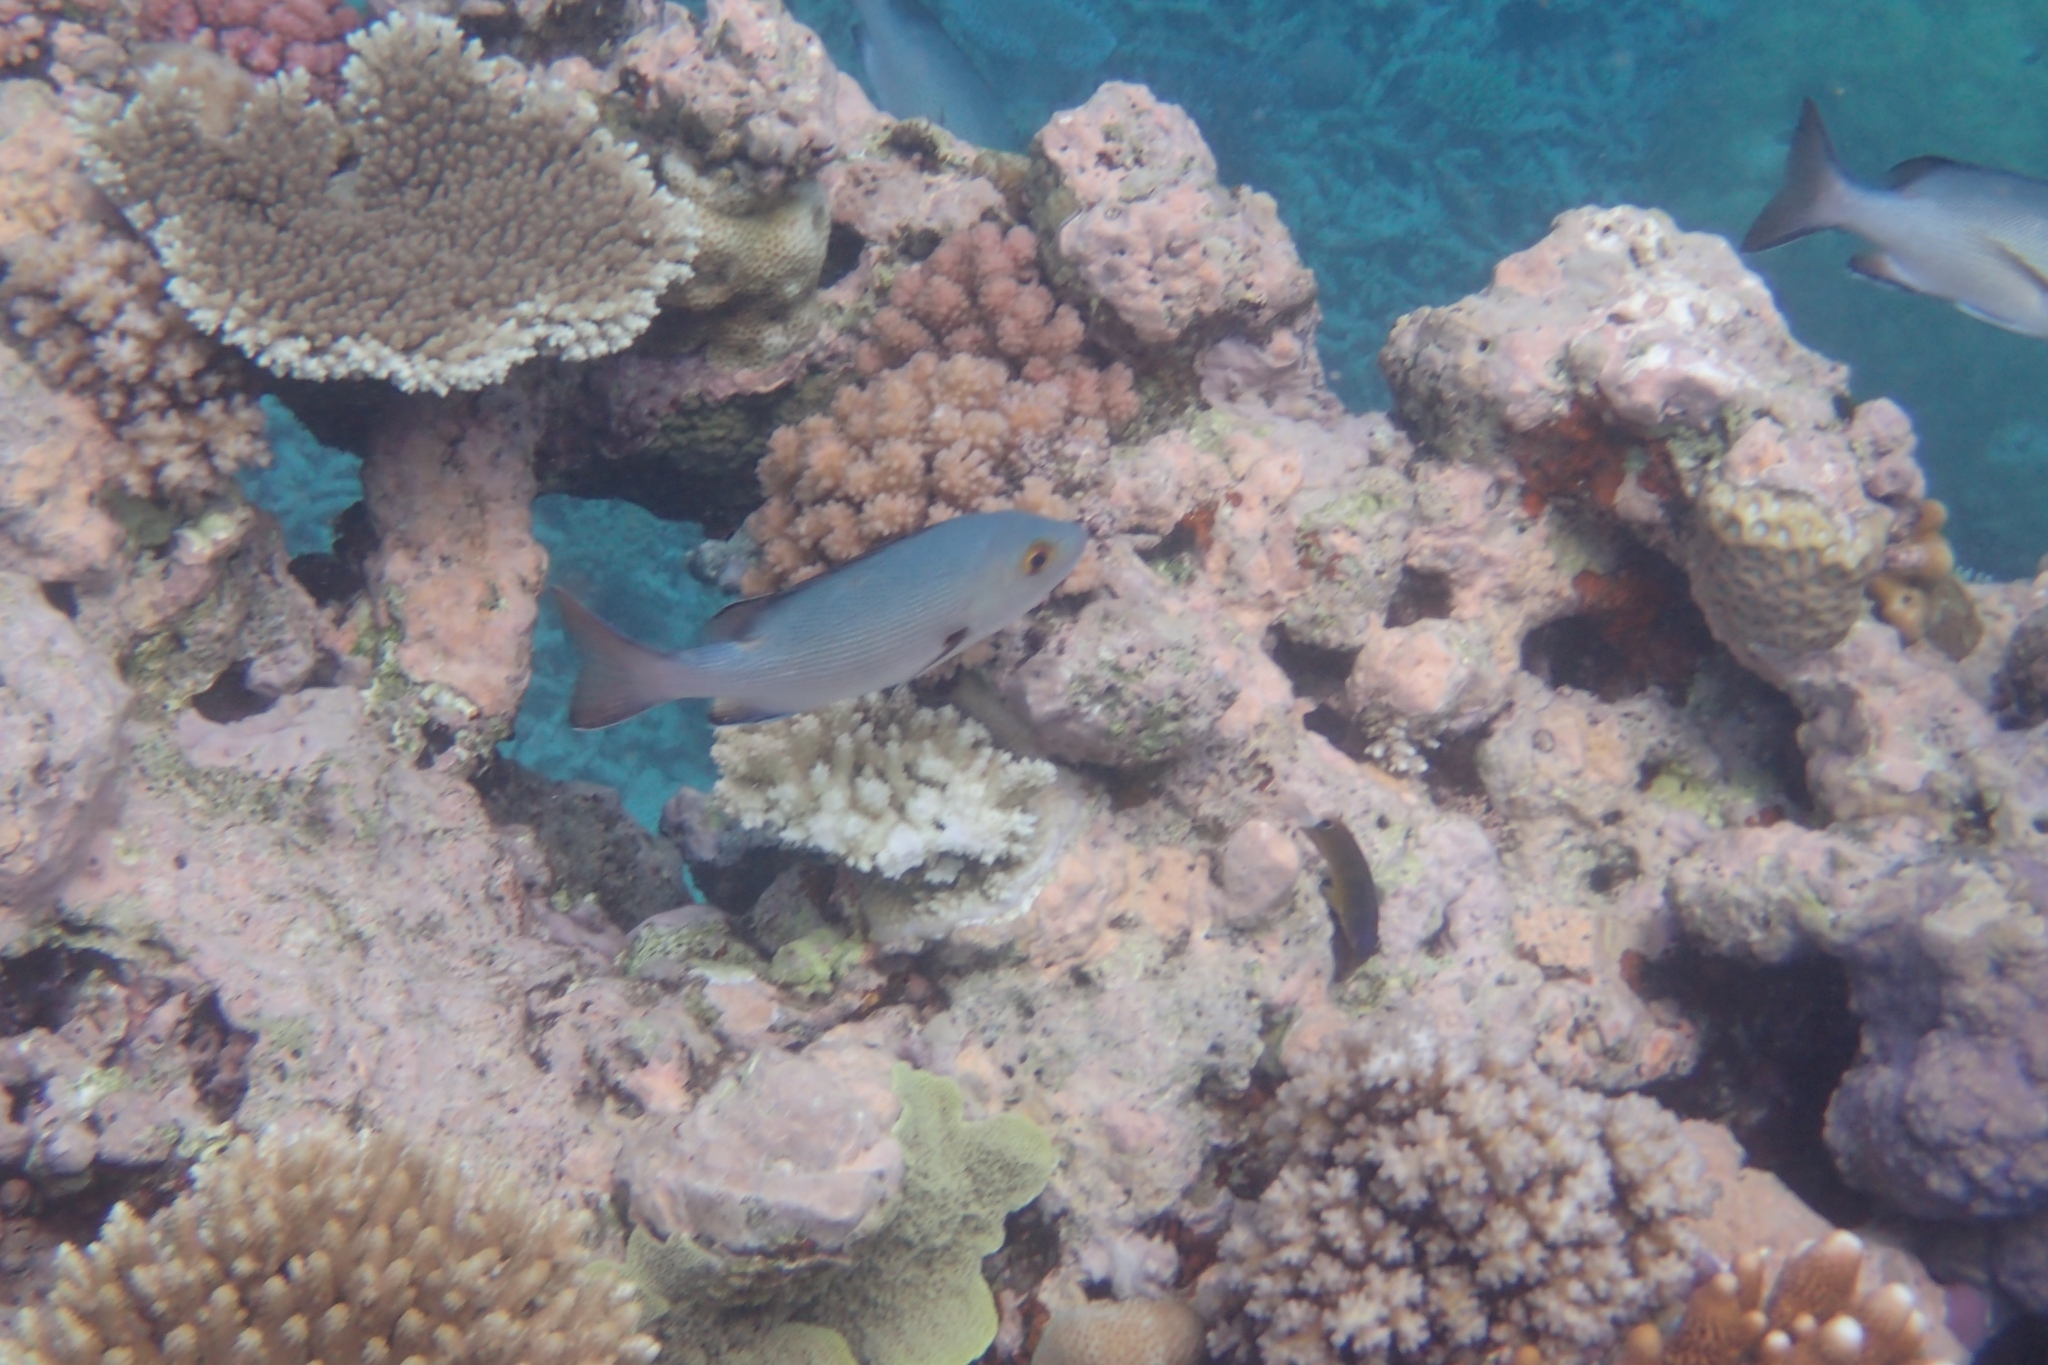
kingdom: Animalia
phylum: Chordata
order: Perciformes
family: Lutjanidae
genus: Lutjanus
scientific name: Lutjanus bohar
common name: Red bass
